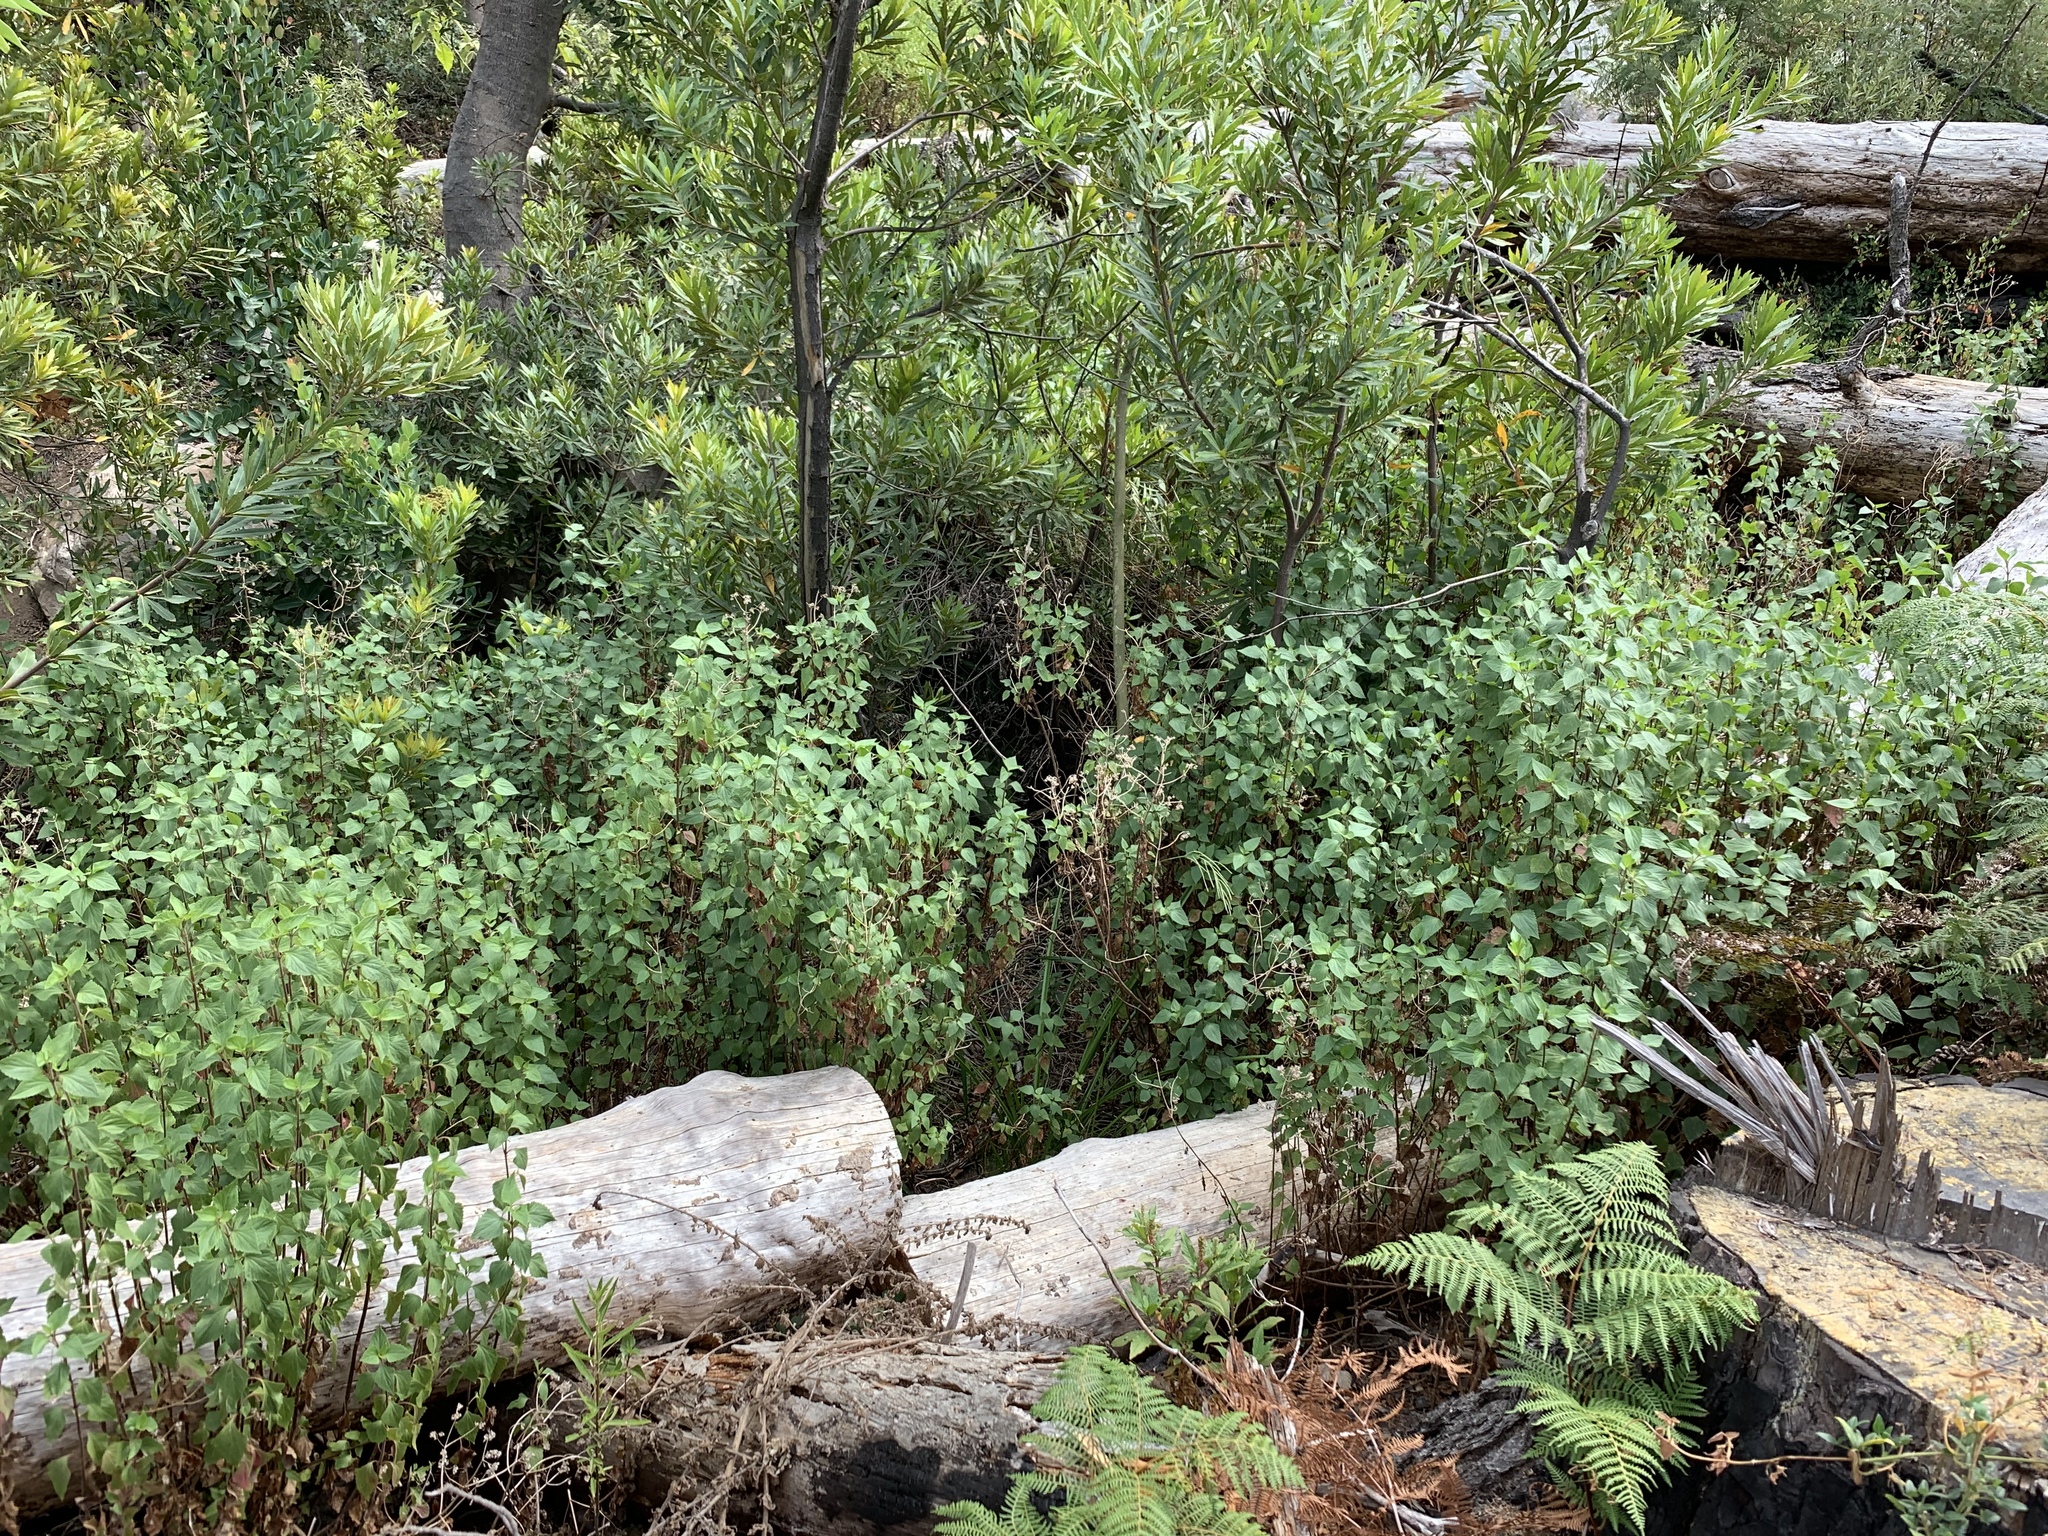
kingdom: Plantae
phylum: Tracheophyta
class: Magnoliopsida
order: Asterales
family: Asteraceae
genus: Ageratina
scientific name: Ageratina adenophora
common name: Sticky snakeroot
